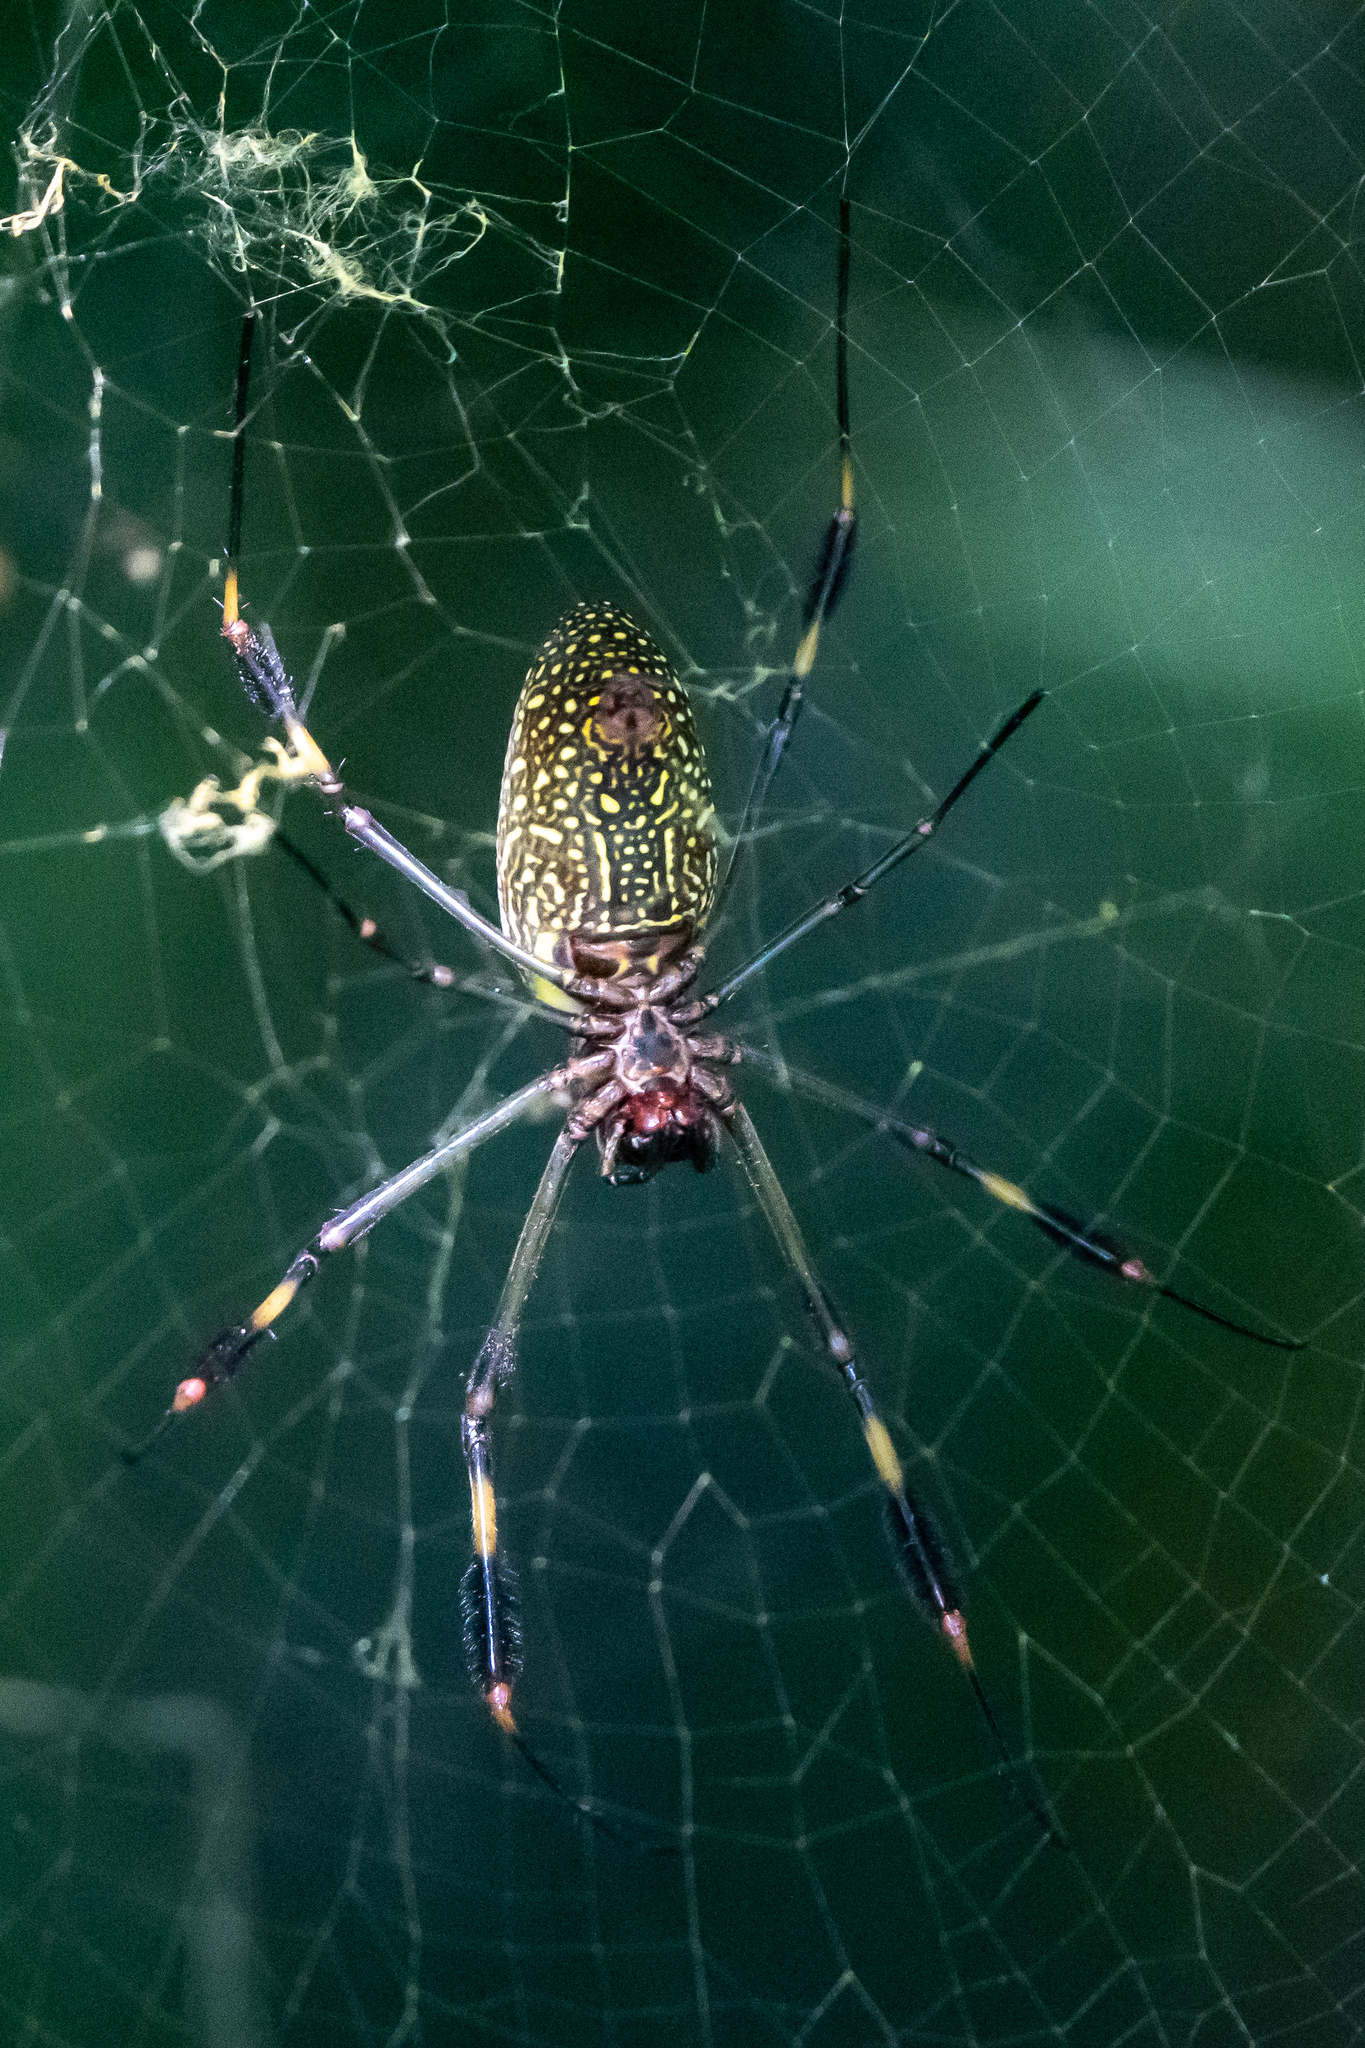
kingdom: Animalia
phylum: Arthropoda
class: Arachnida
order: Araneae
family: Araneidae
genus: Trichonephila
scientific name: Trichonephila clavipes
